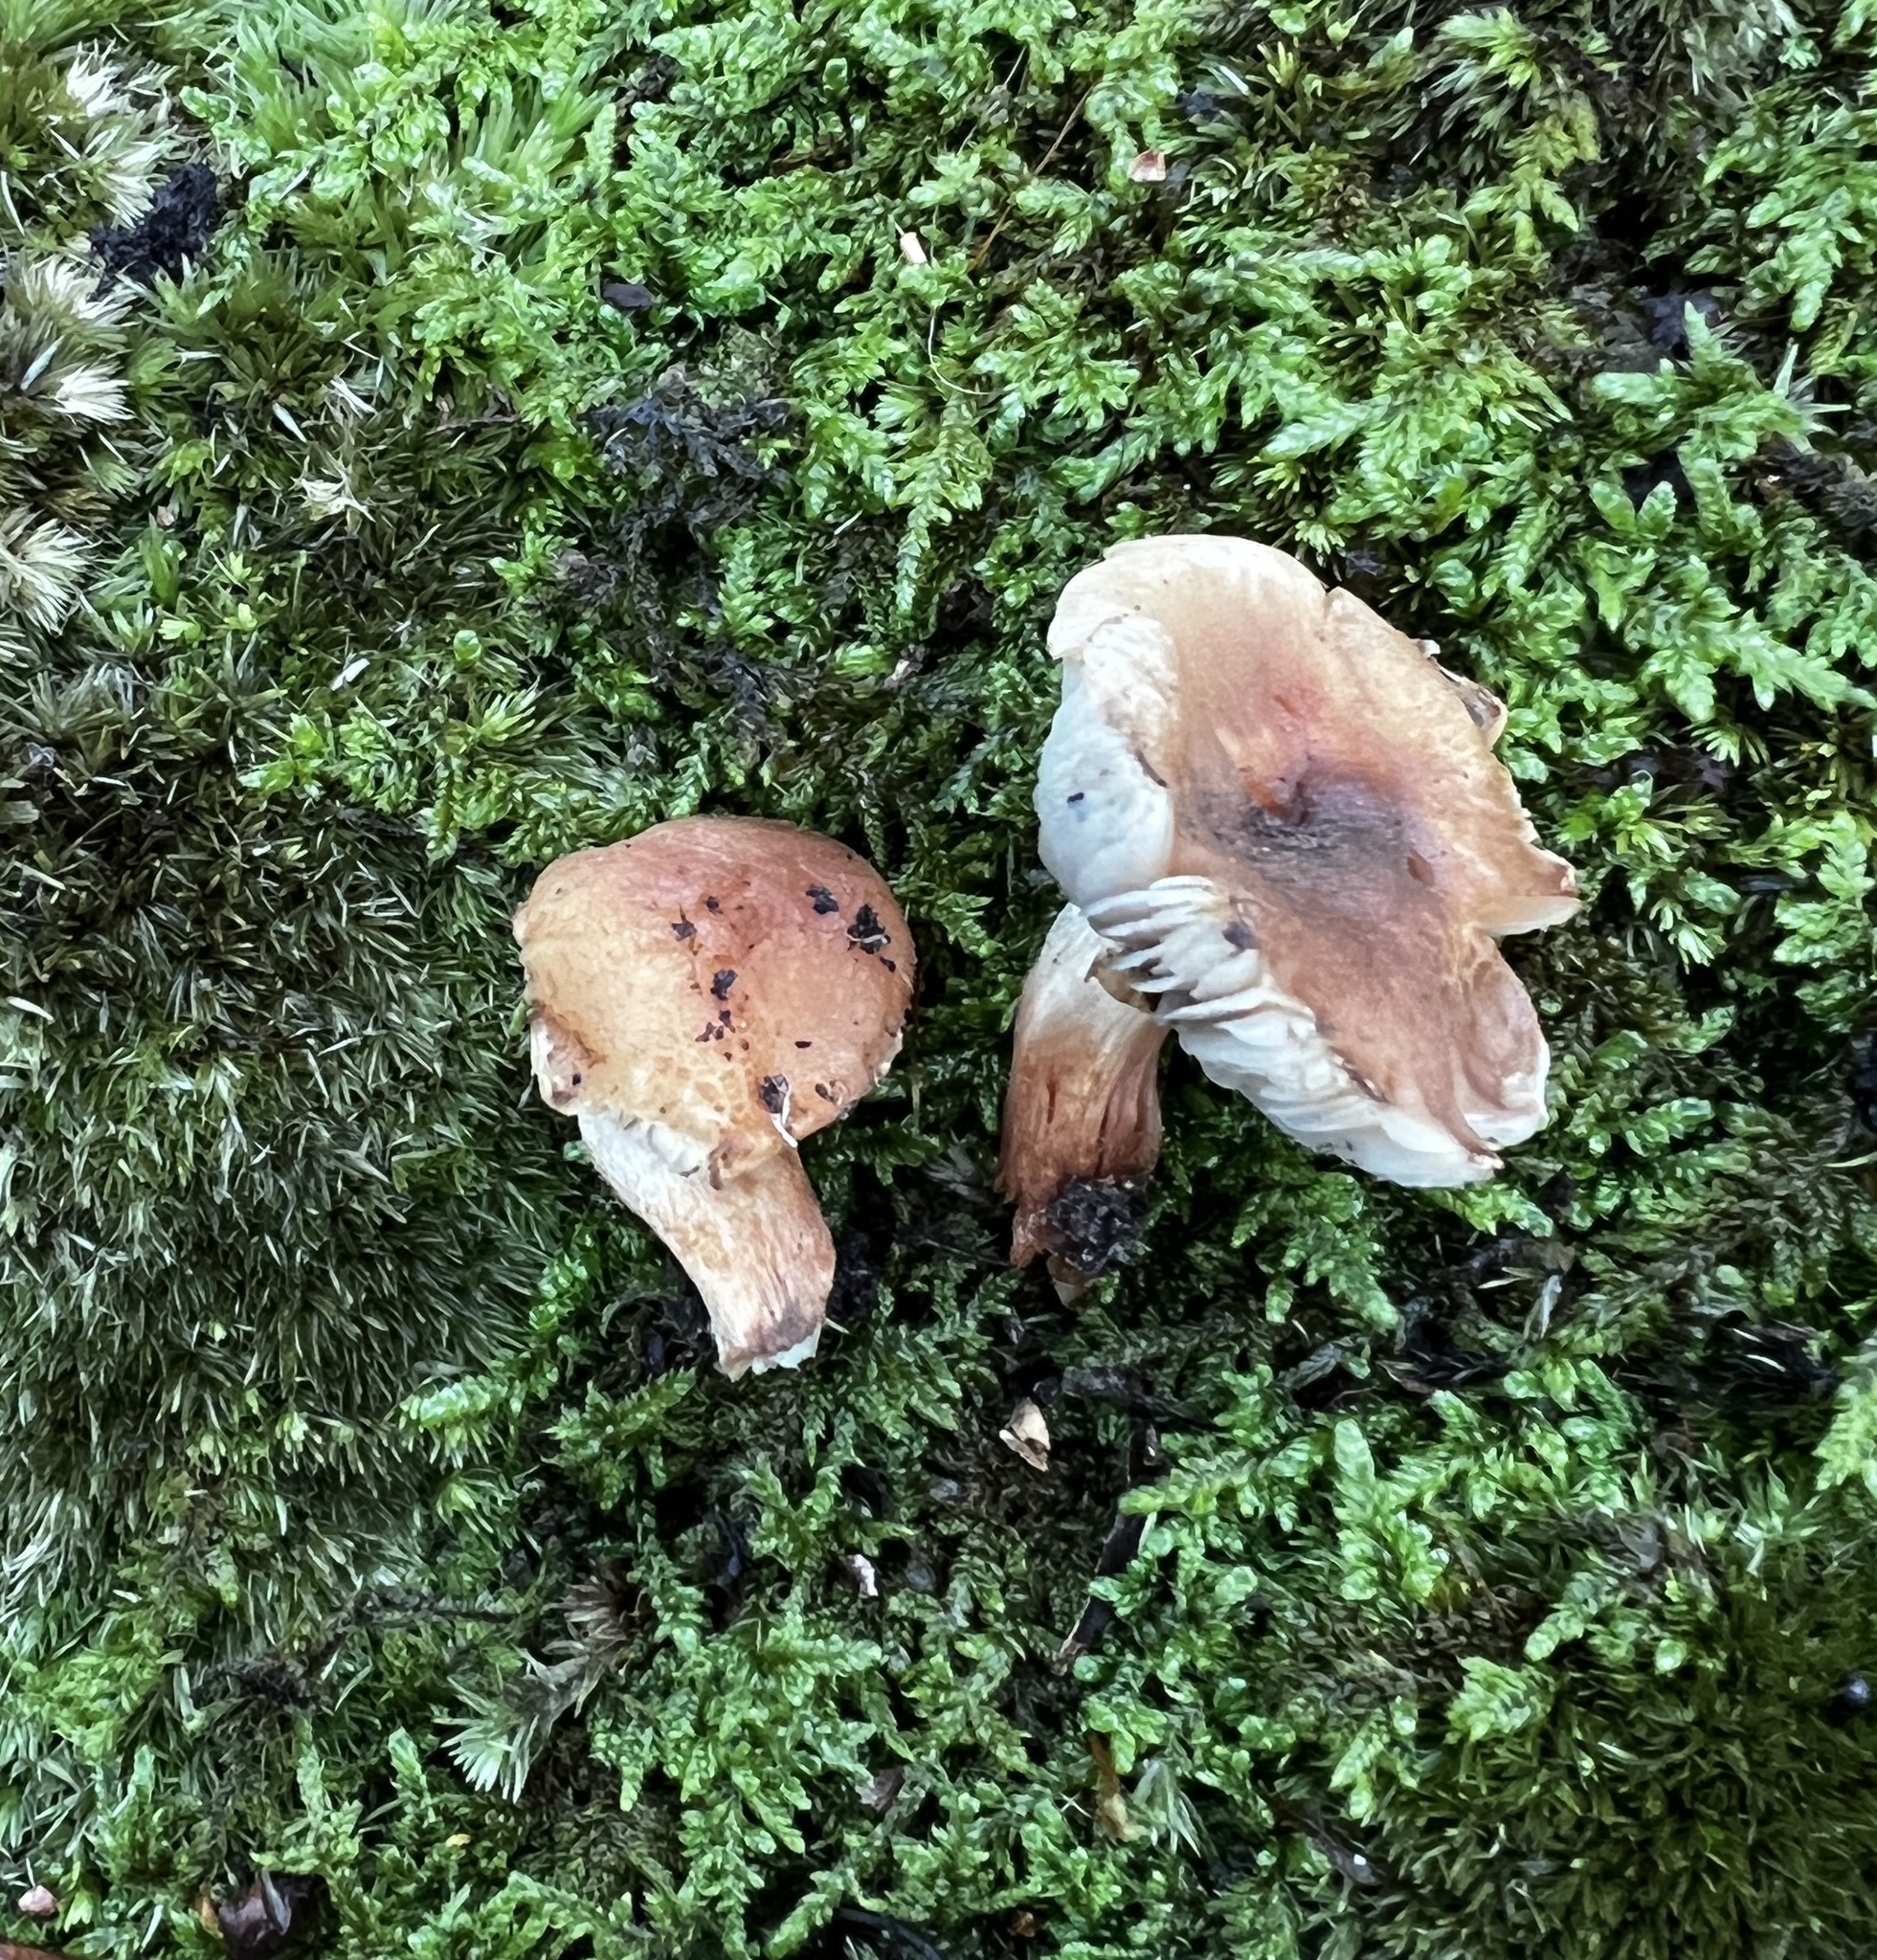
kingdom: Fungi
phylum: Basidiomycota
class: Agaricomycetes
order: Agaricales
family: Tricholomataceae
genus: Tricholoma
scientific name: Tricholoma fulvum
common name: Birch knight
